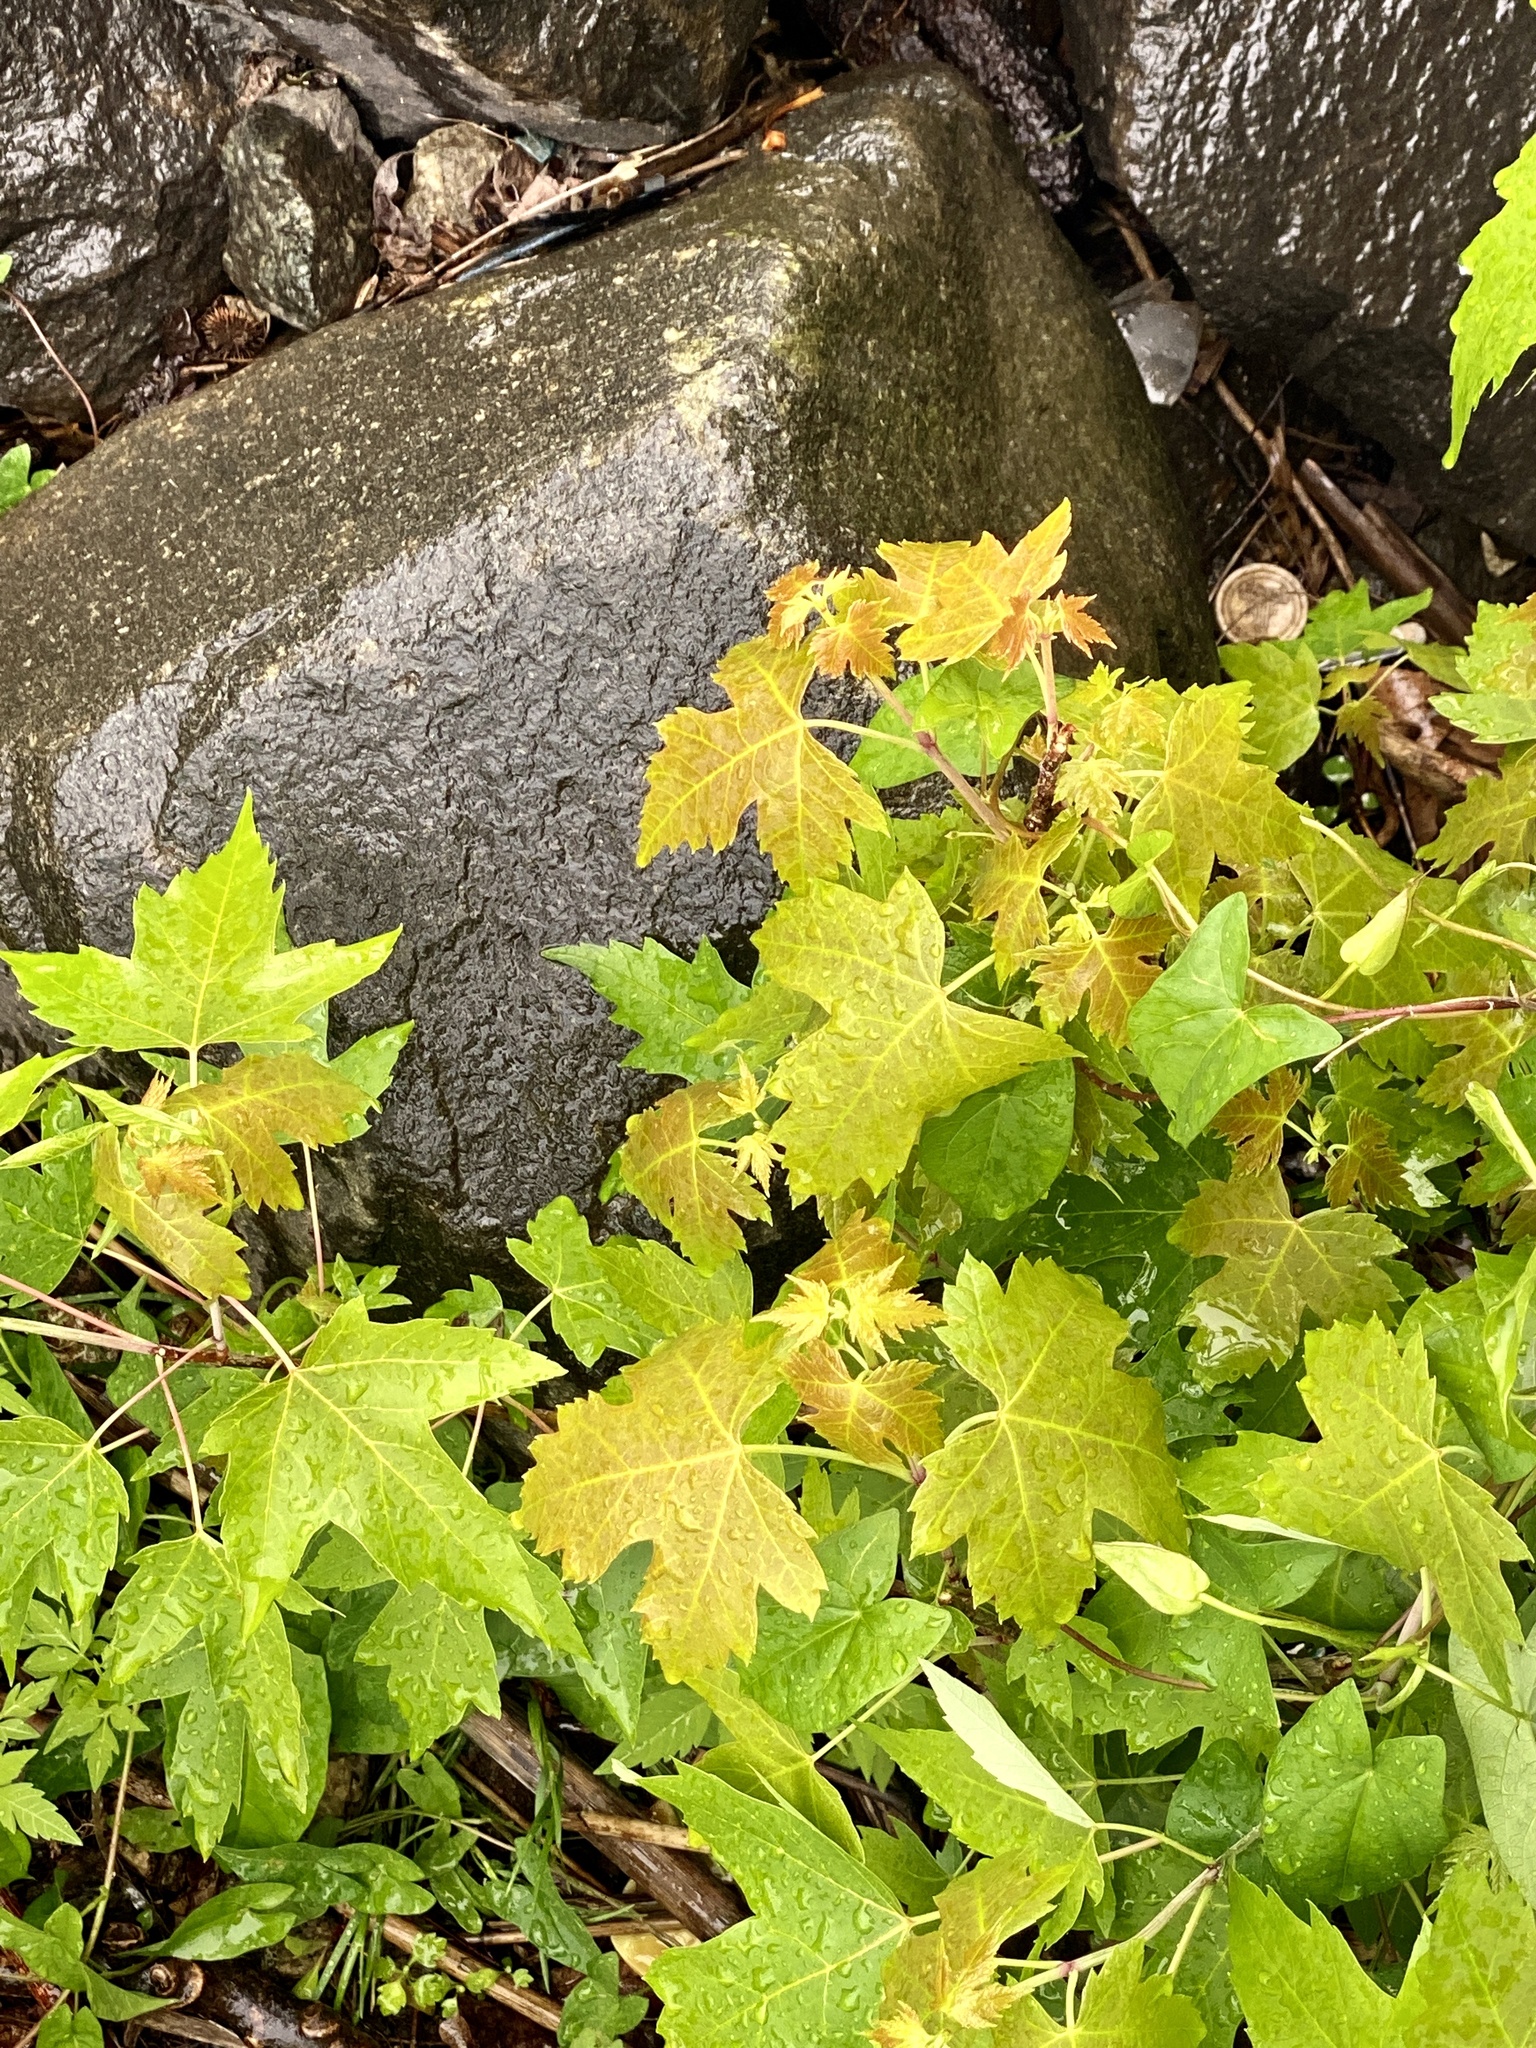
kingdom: Plantae
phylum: Tracheophyta
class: Magnoliopsida
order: Sapindales
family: Sapindaceae
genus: Acer
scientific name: Acer saccharinum
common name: Silver maple
